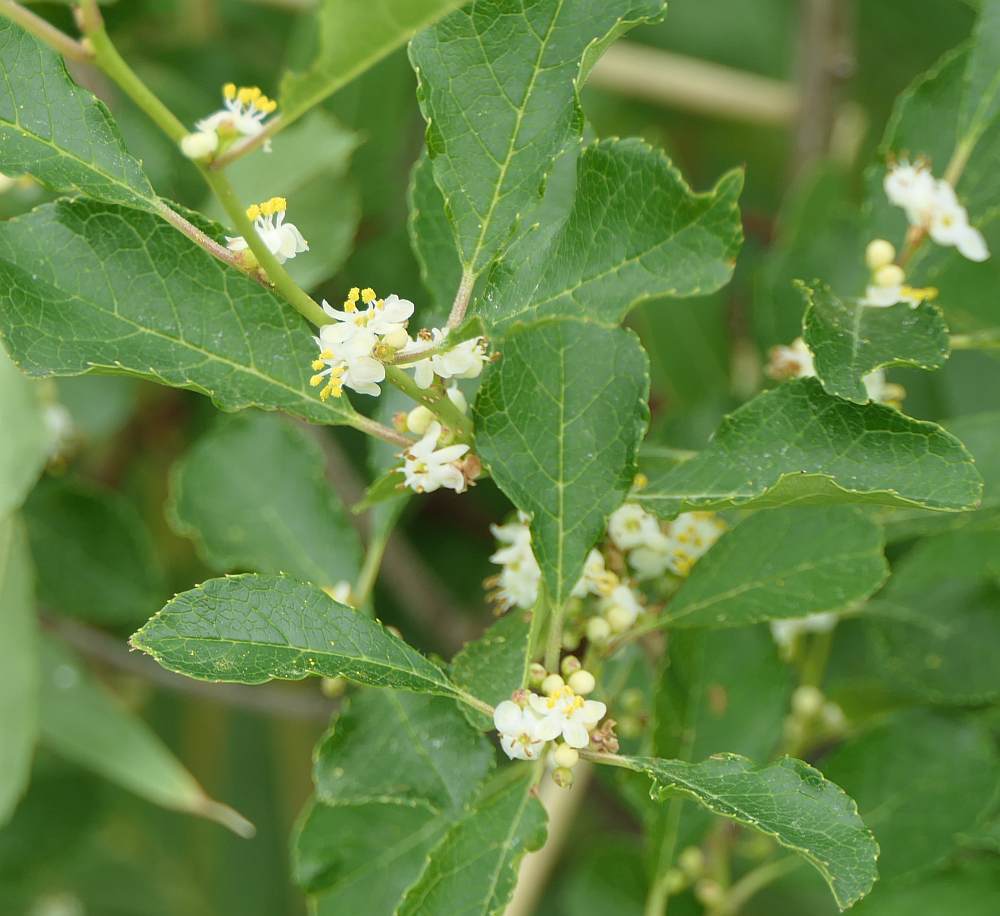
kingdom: Plantae
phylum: Tracheophyta
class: Magnoliopsida
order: Aquifoliales
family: Aquifoliaceae
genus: Ilex
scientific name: Ilex verticillata
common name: Virginia winterberry
